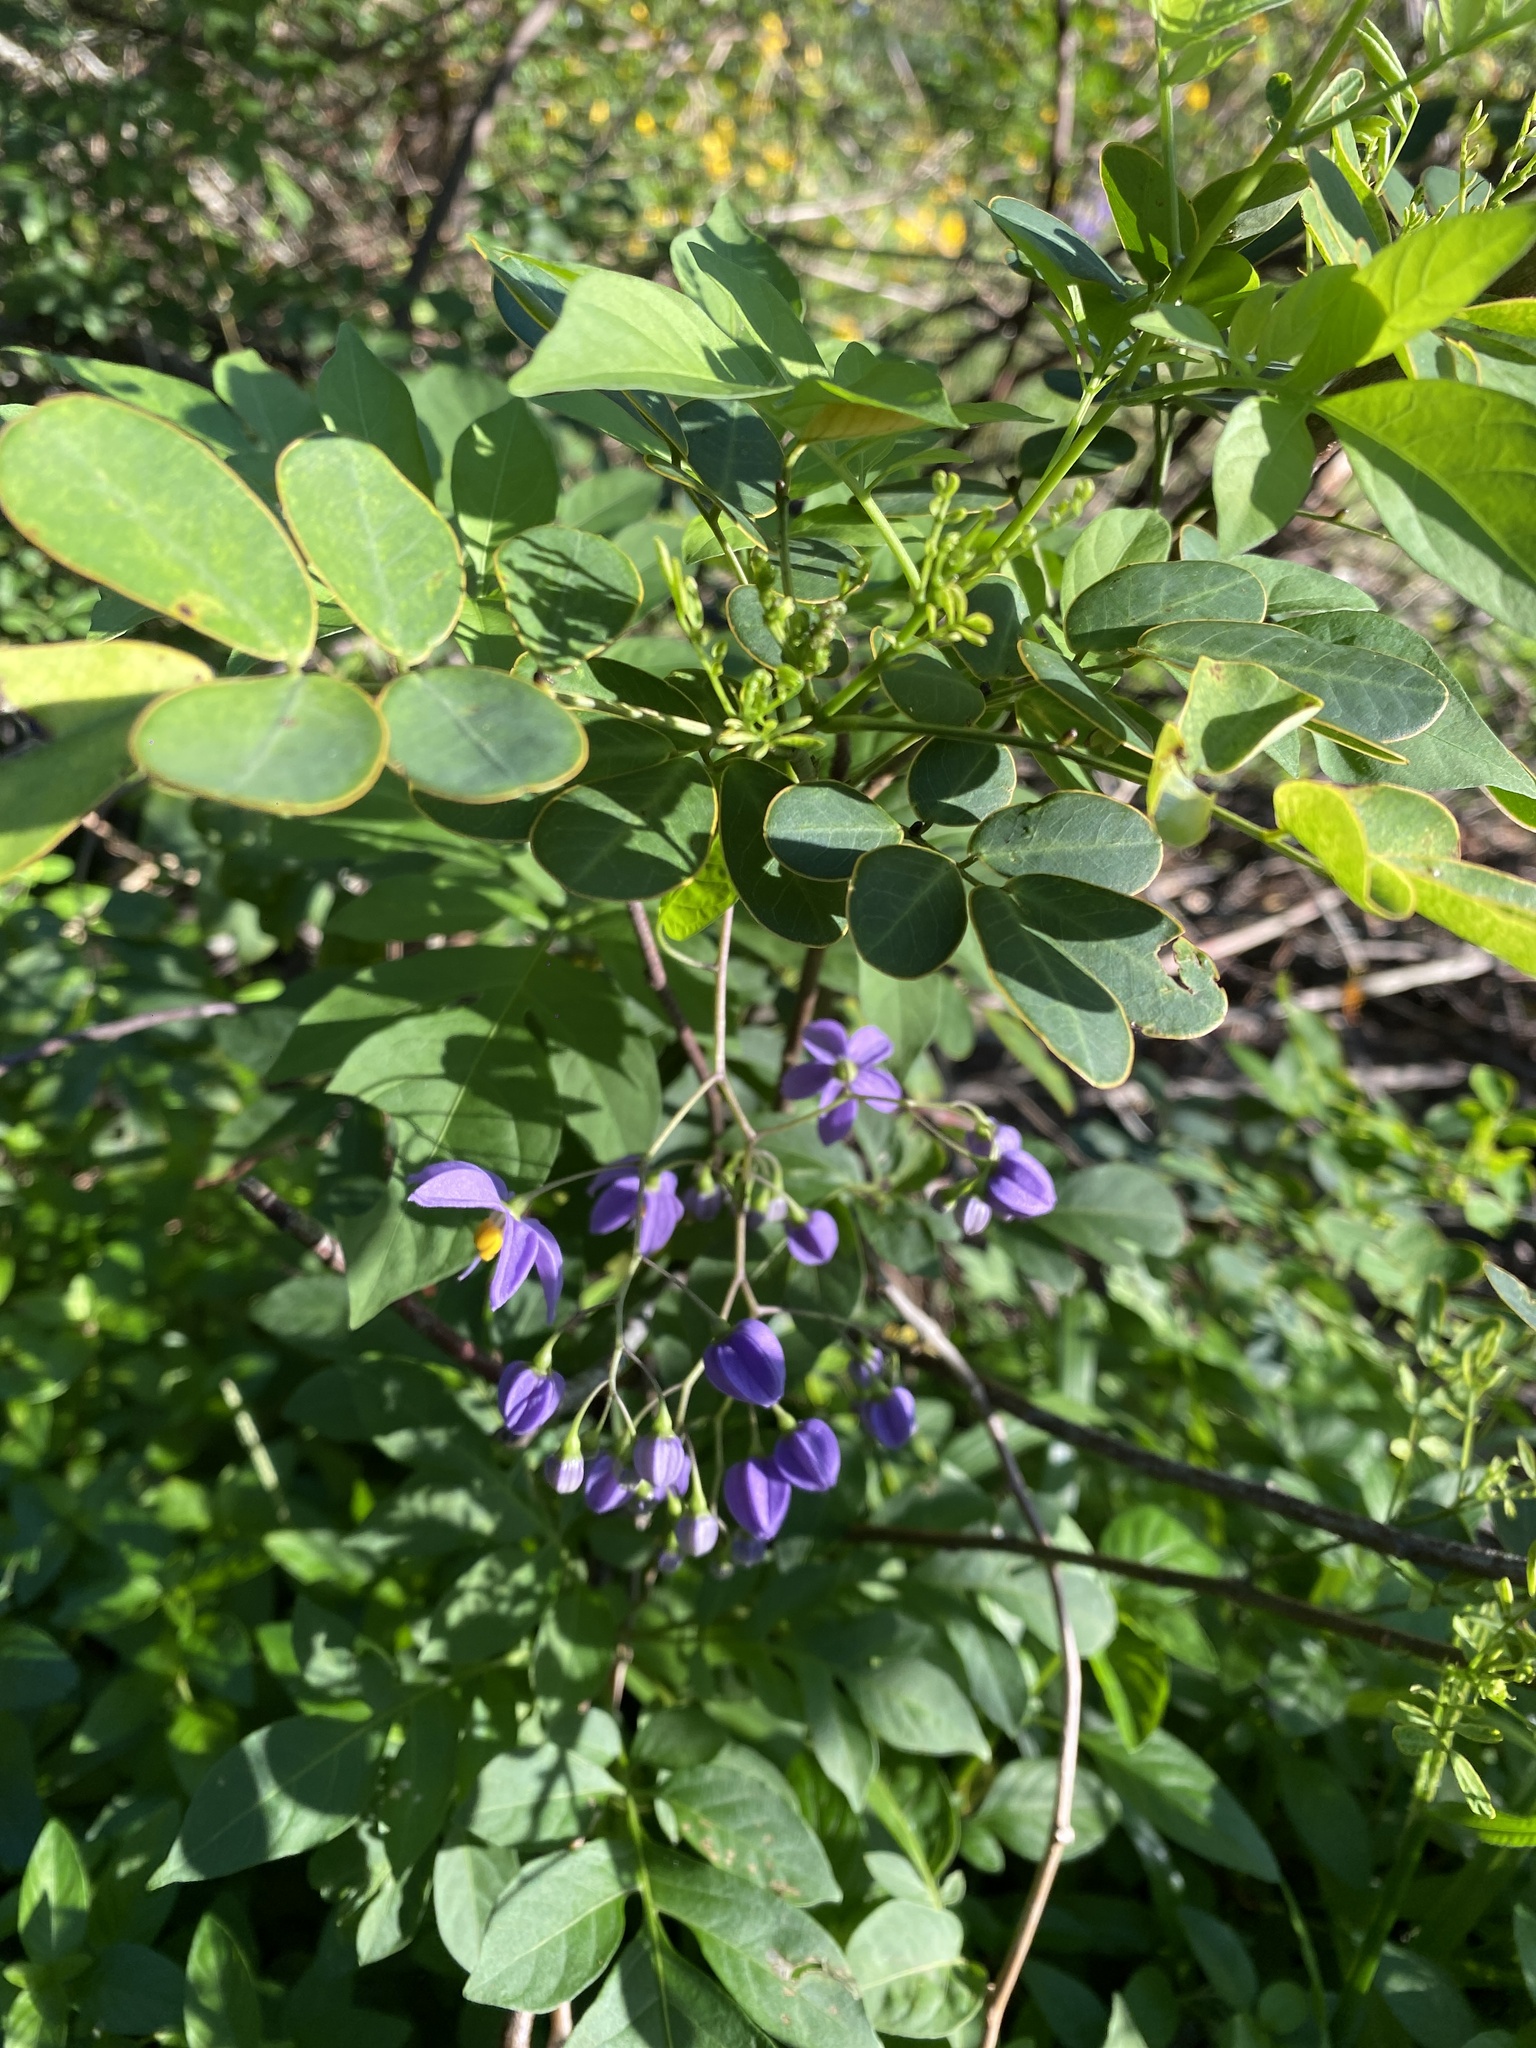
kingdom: Plantae
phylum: Tracheophyta
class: Magnoliopsida
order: Solanales
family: Solanaceae
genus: Solanum
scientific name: Solanum seaforthianum
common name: Brazilian nightshade
